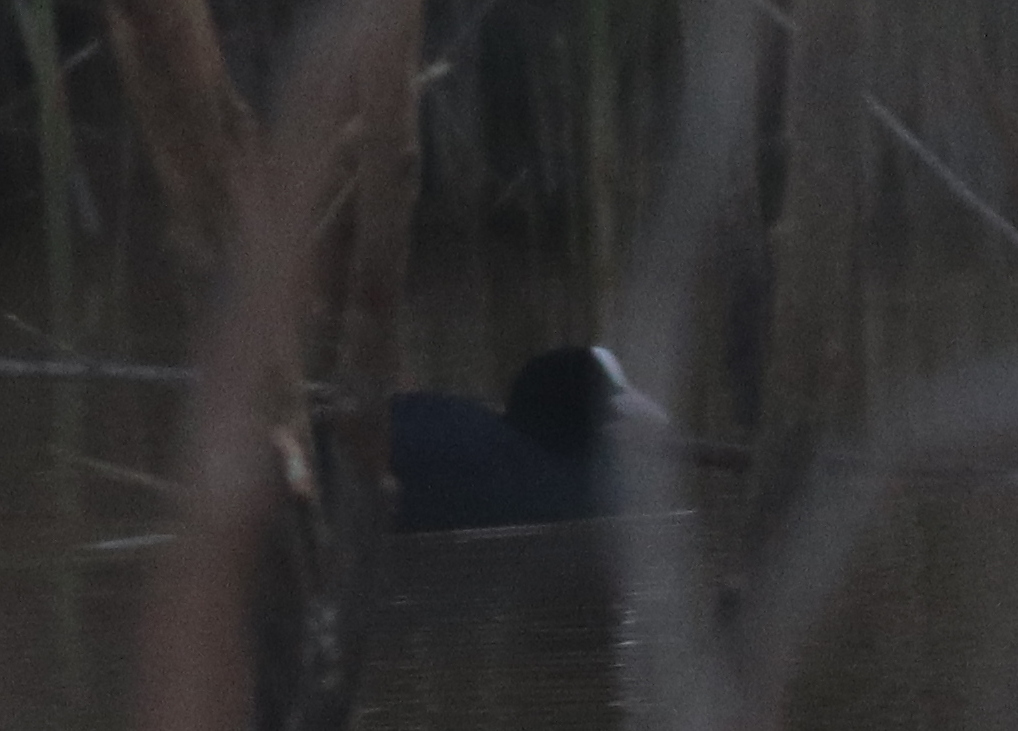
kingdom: Animalia
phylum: Chordata
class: Aves
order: Gruiformes
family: Rallidae
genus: Fulica
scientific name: Fulica atra
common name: Eurasian coot
